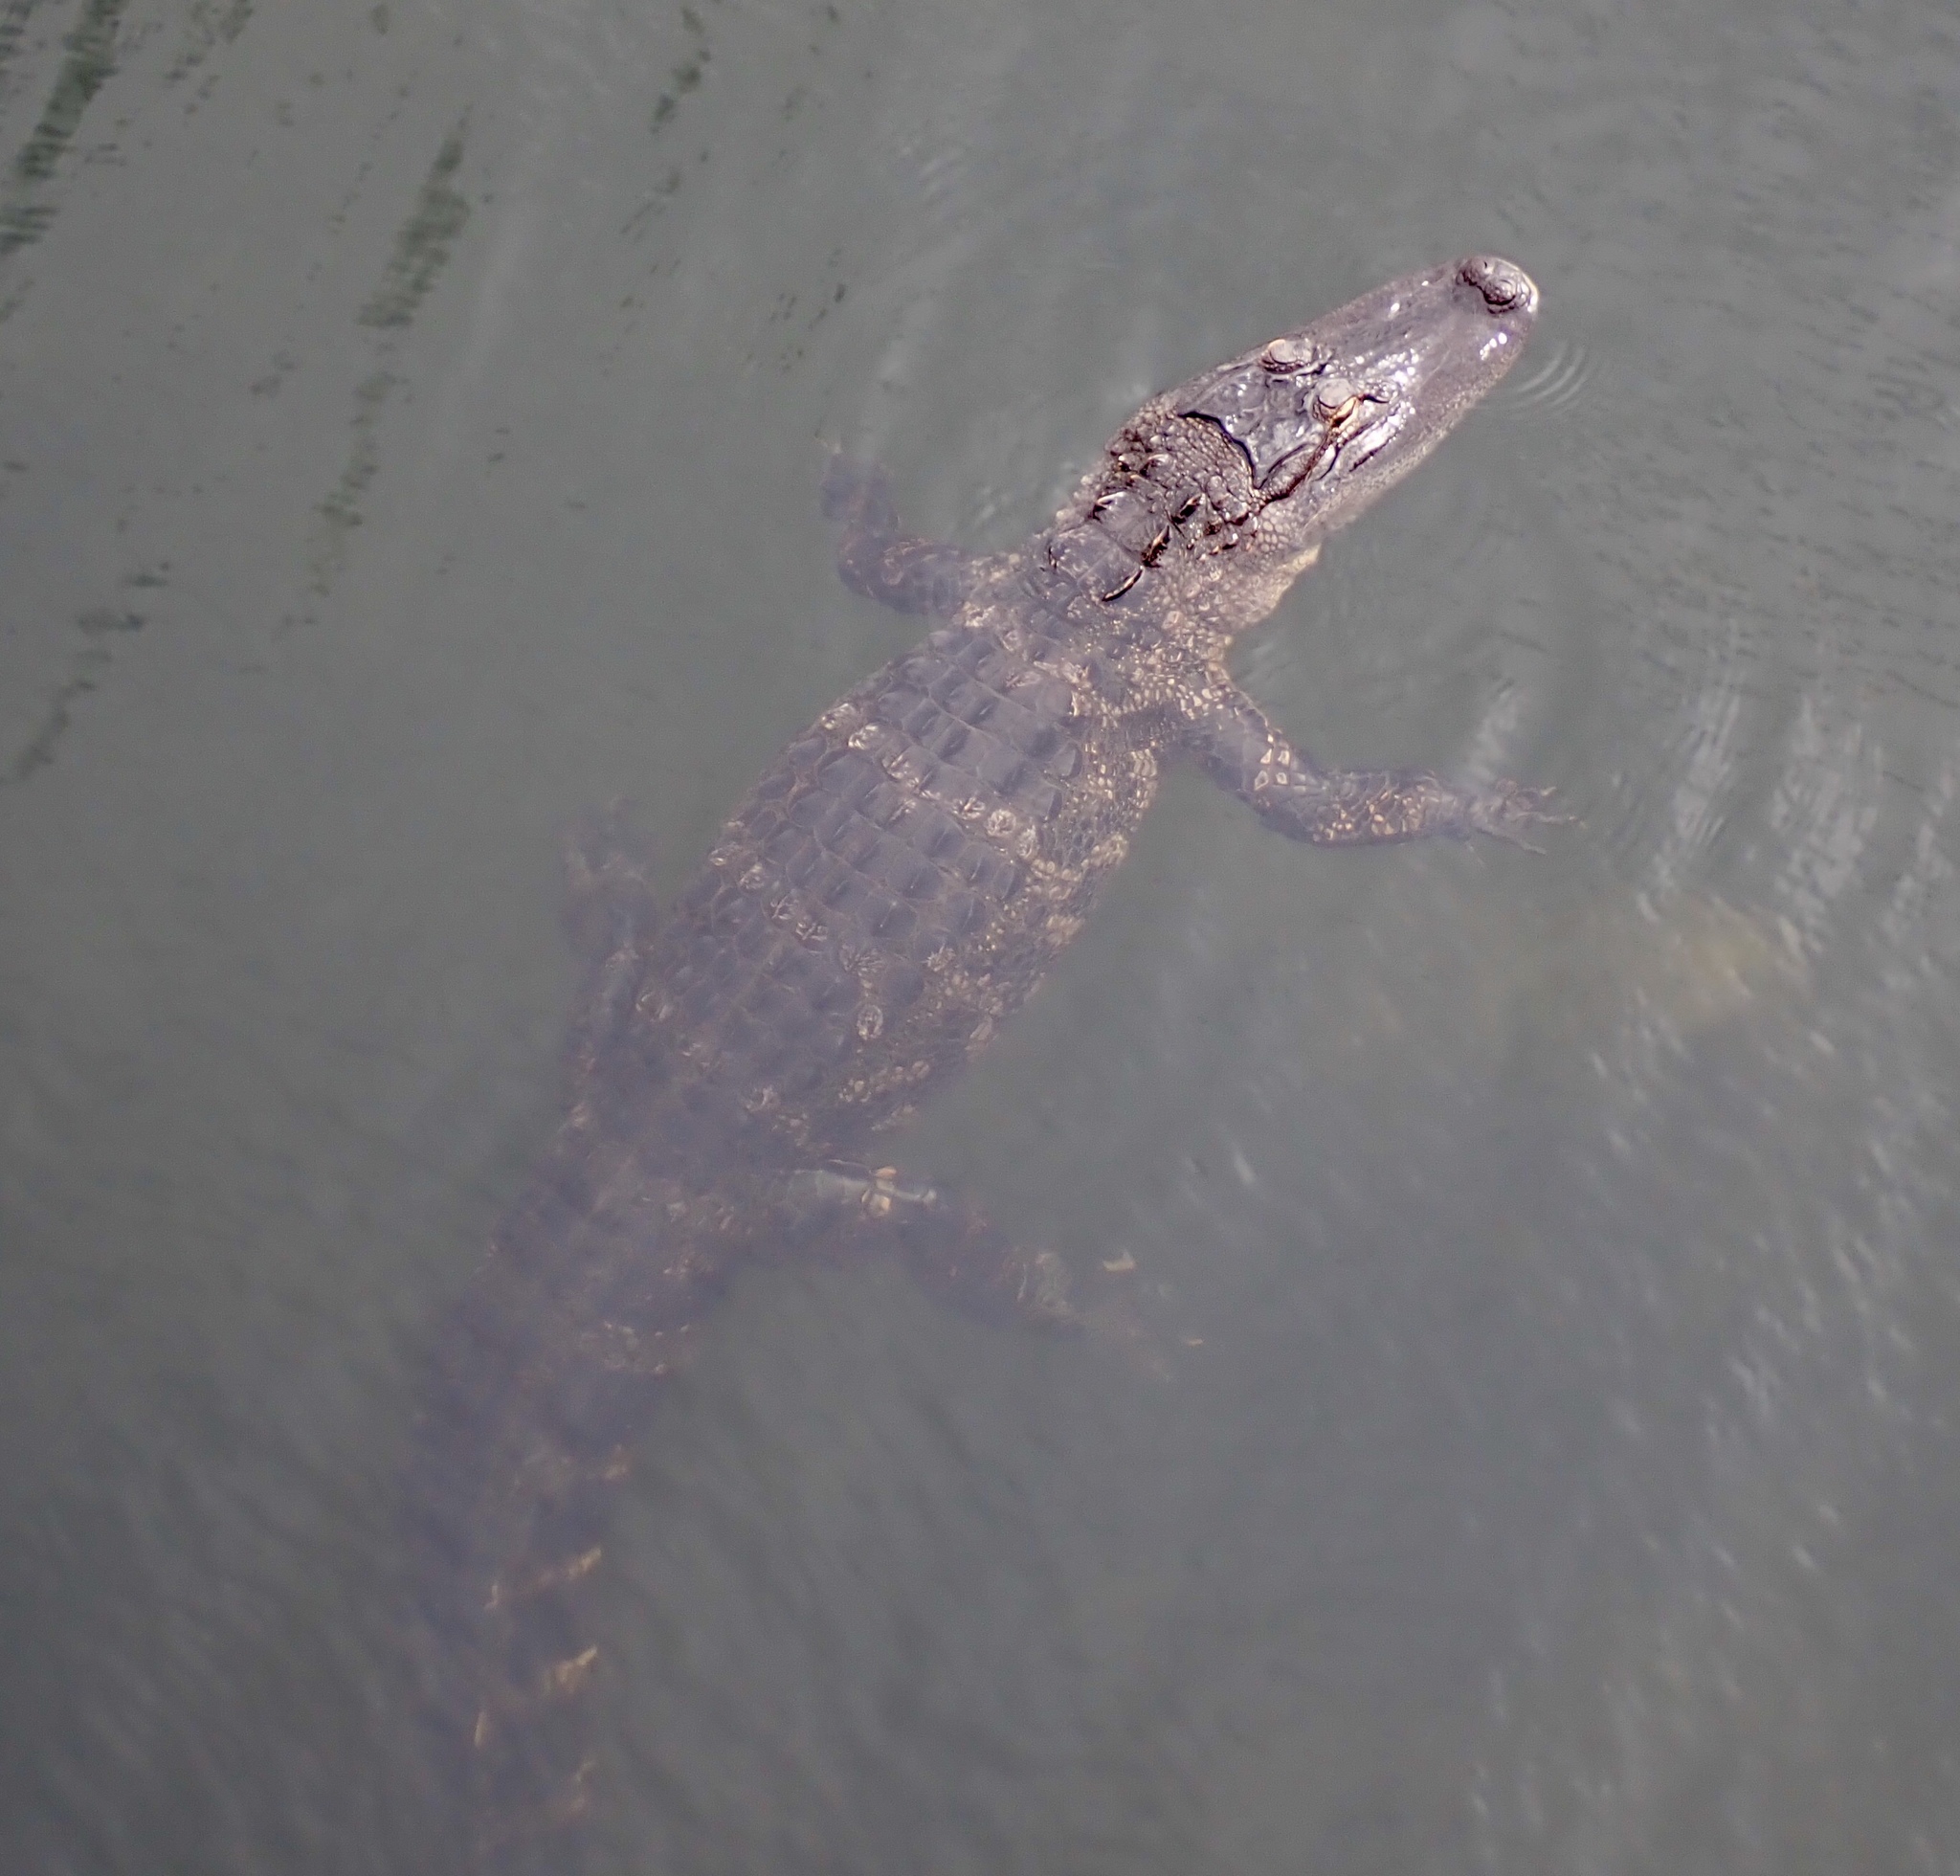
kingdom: Animalia
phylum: Chordata
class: Crocodylia
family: Alligatoridae
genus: Alligator
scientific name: Alligator mississippiensis
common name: American alligator
